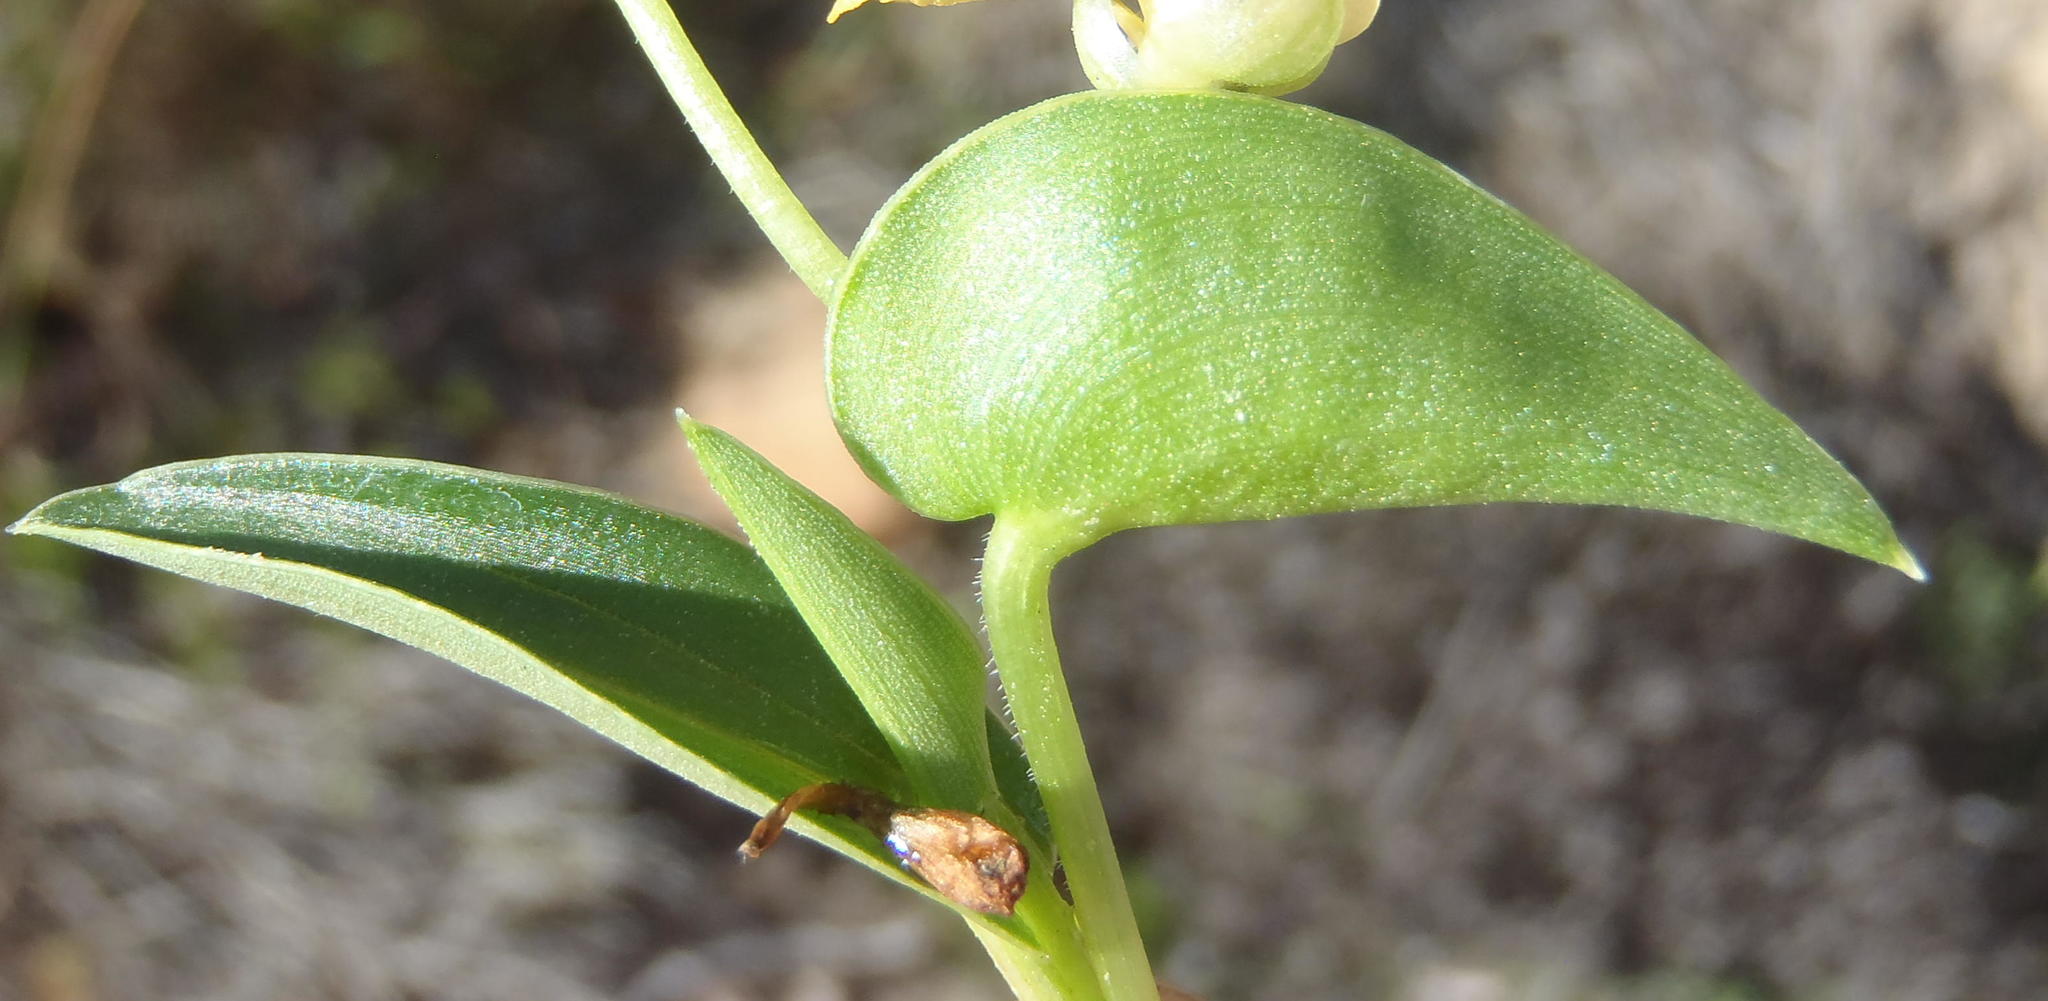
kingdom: Plantae
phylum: Tracheophyta
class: Liliopsida
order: Commelinales
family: Commelinaceae
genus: Commelina
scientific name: Commelina africana
